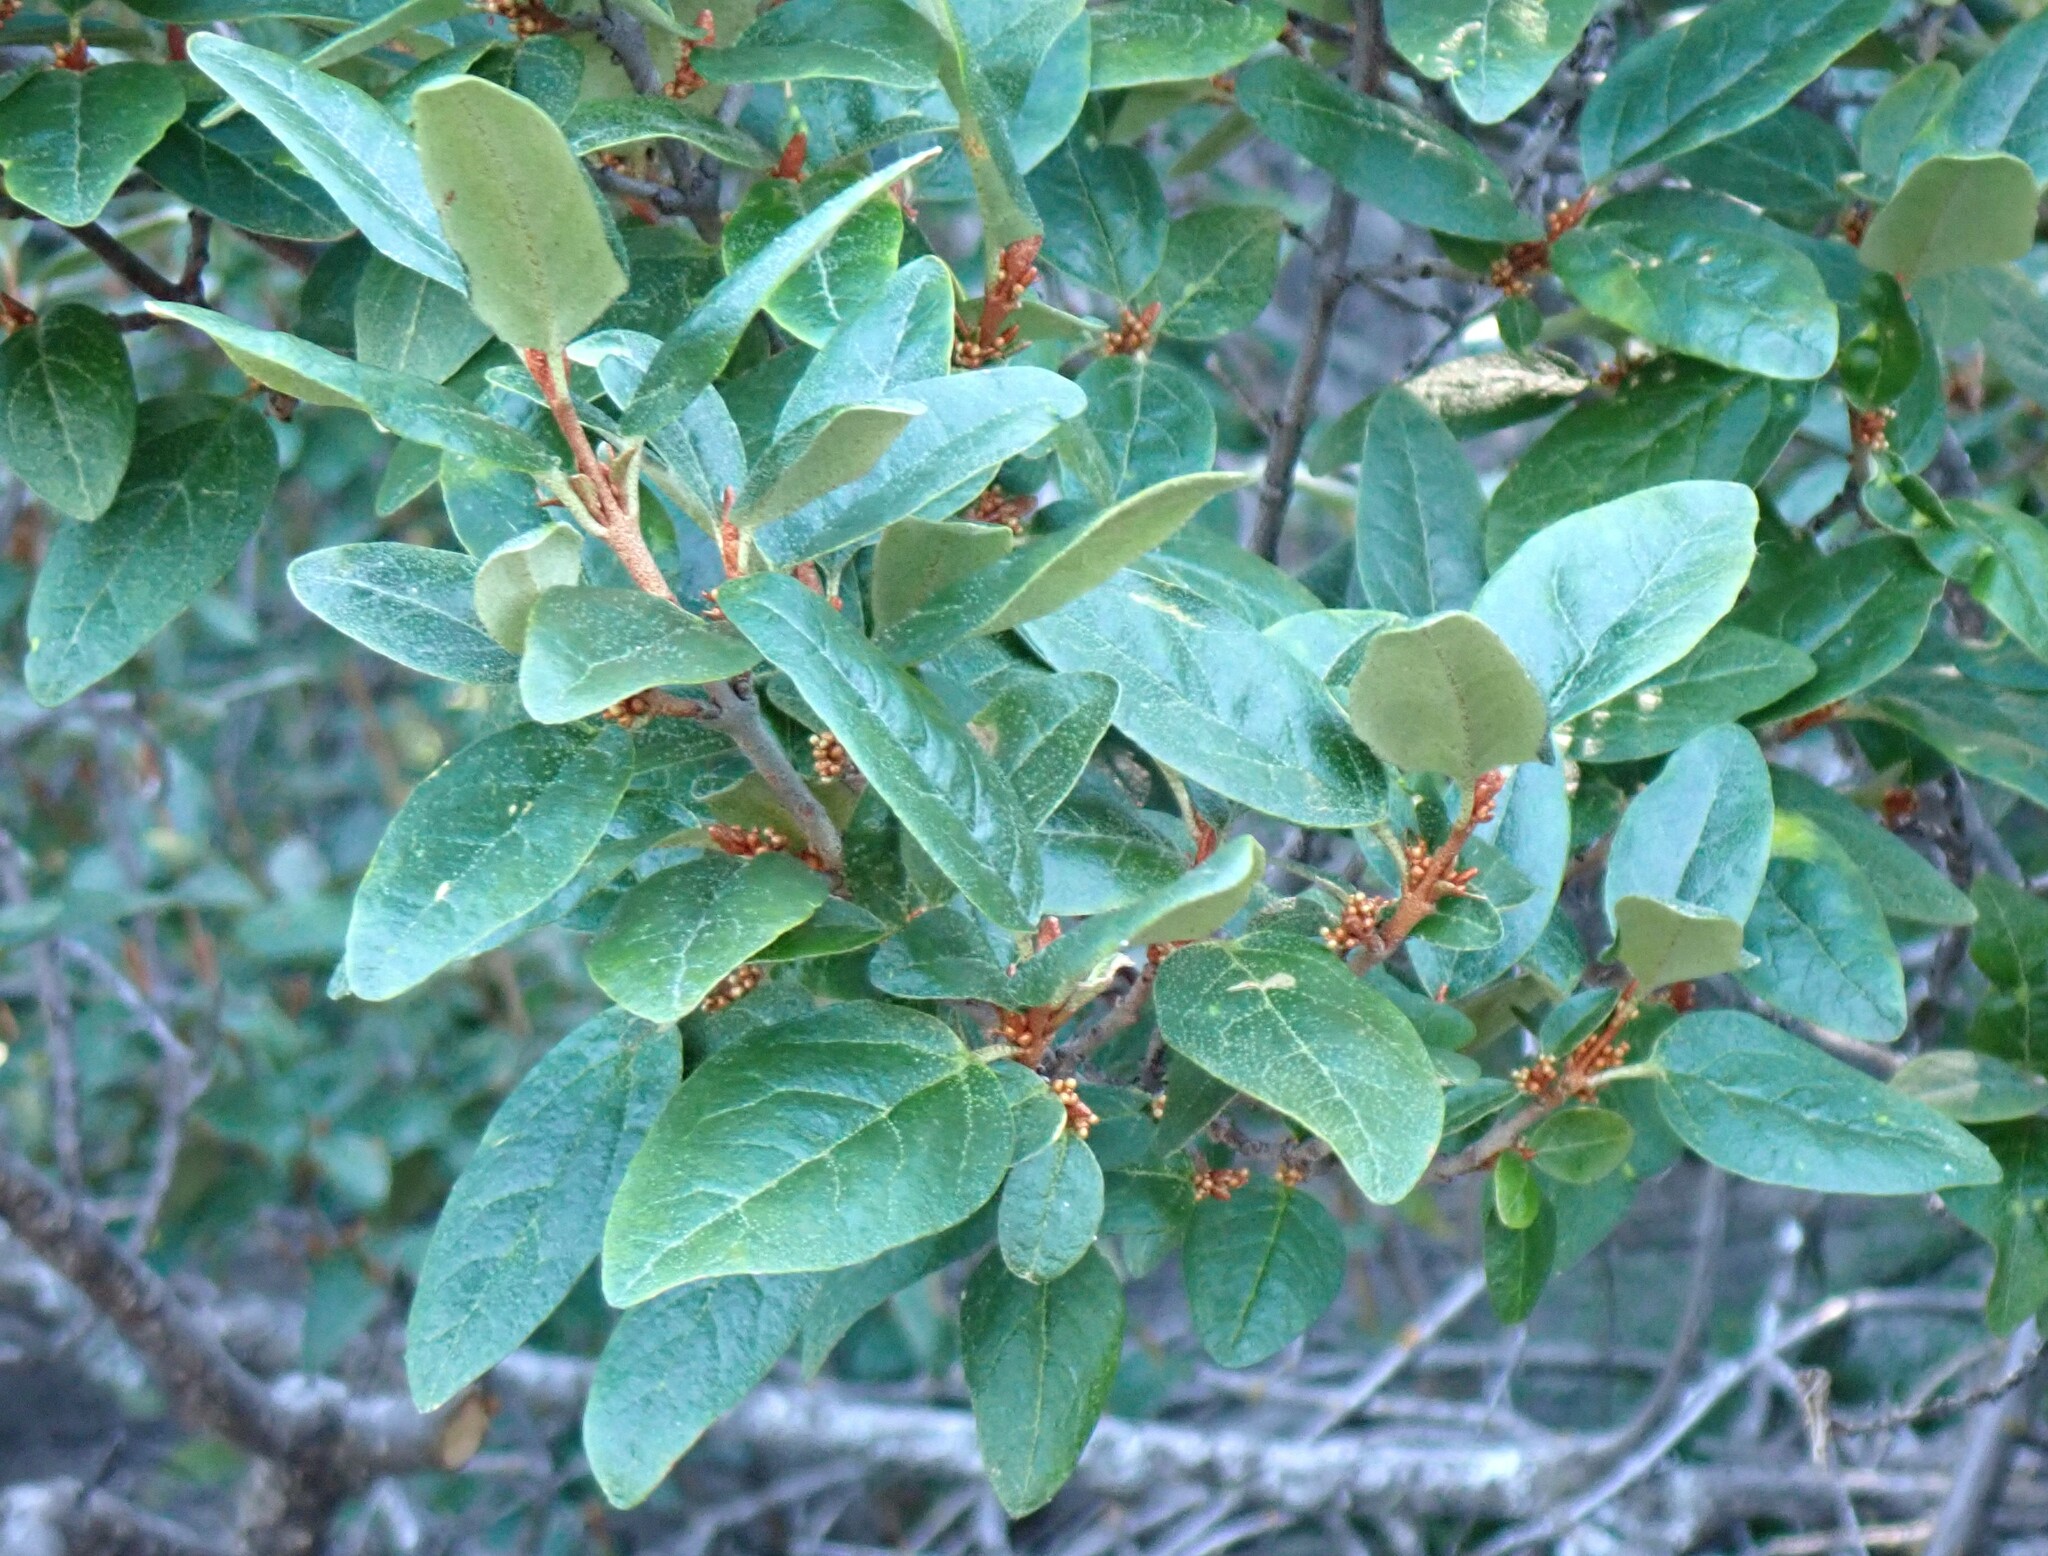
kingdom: Plantae
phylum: Tracheophyta
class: Magnoliopsida
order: Rosales
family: Elaeagnaceae
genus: Shepherdia
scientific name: Shepherdia canadensis
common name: Soapberry
